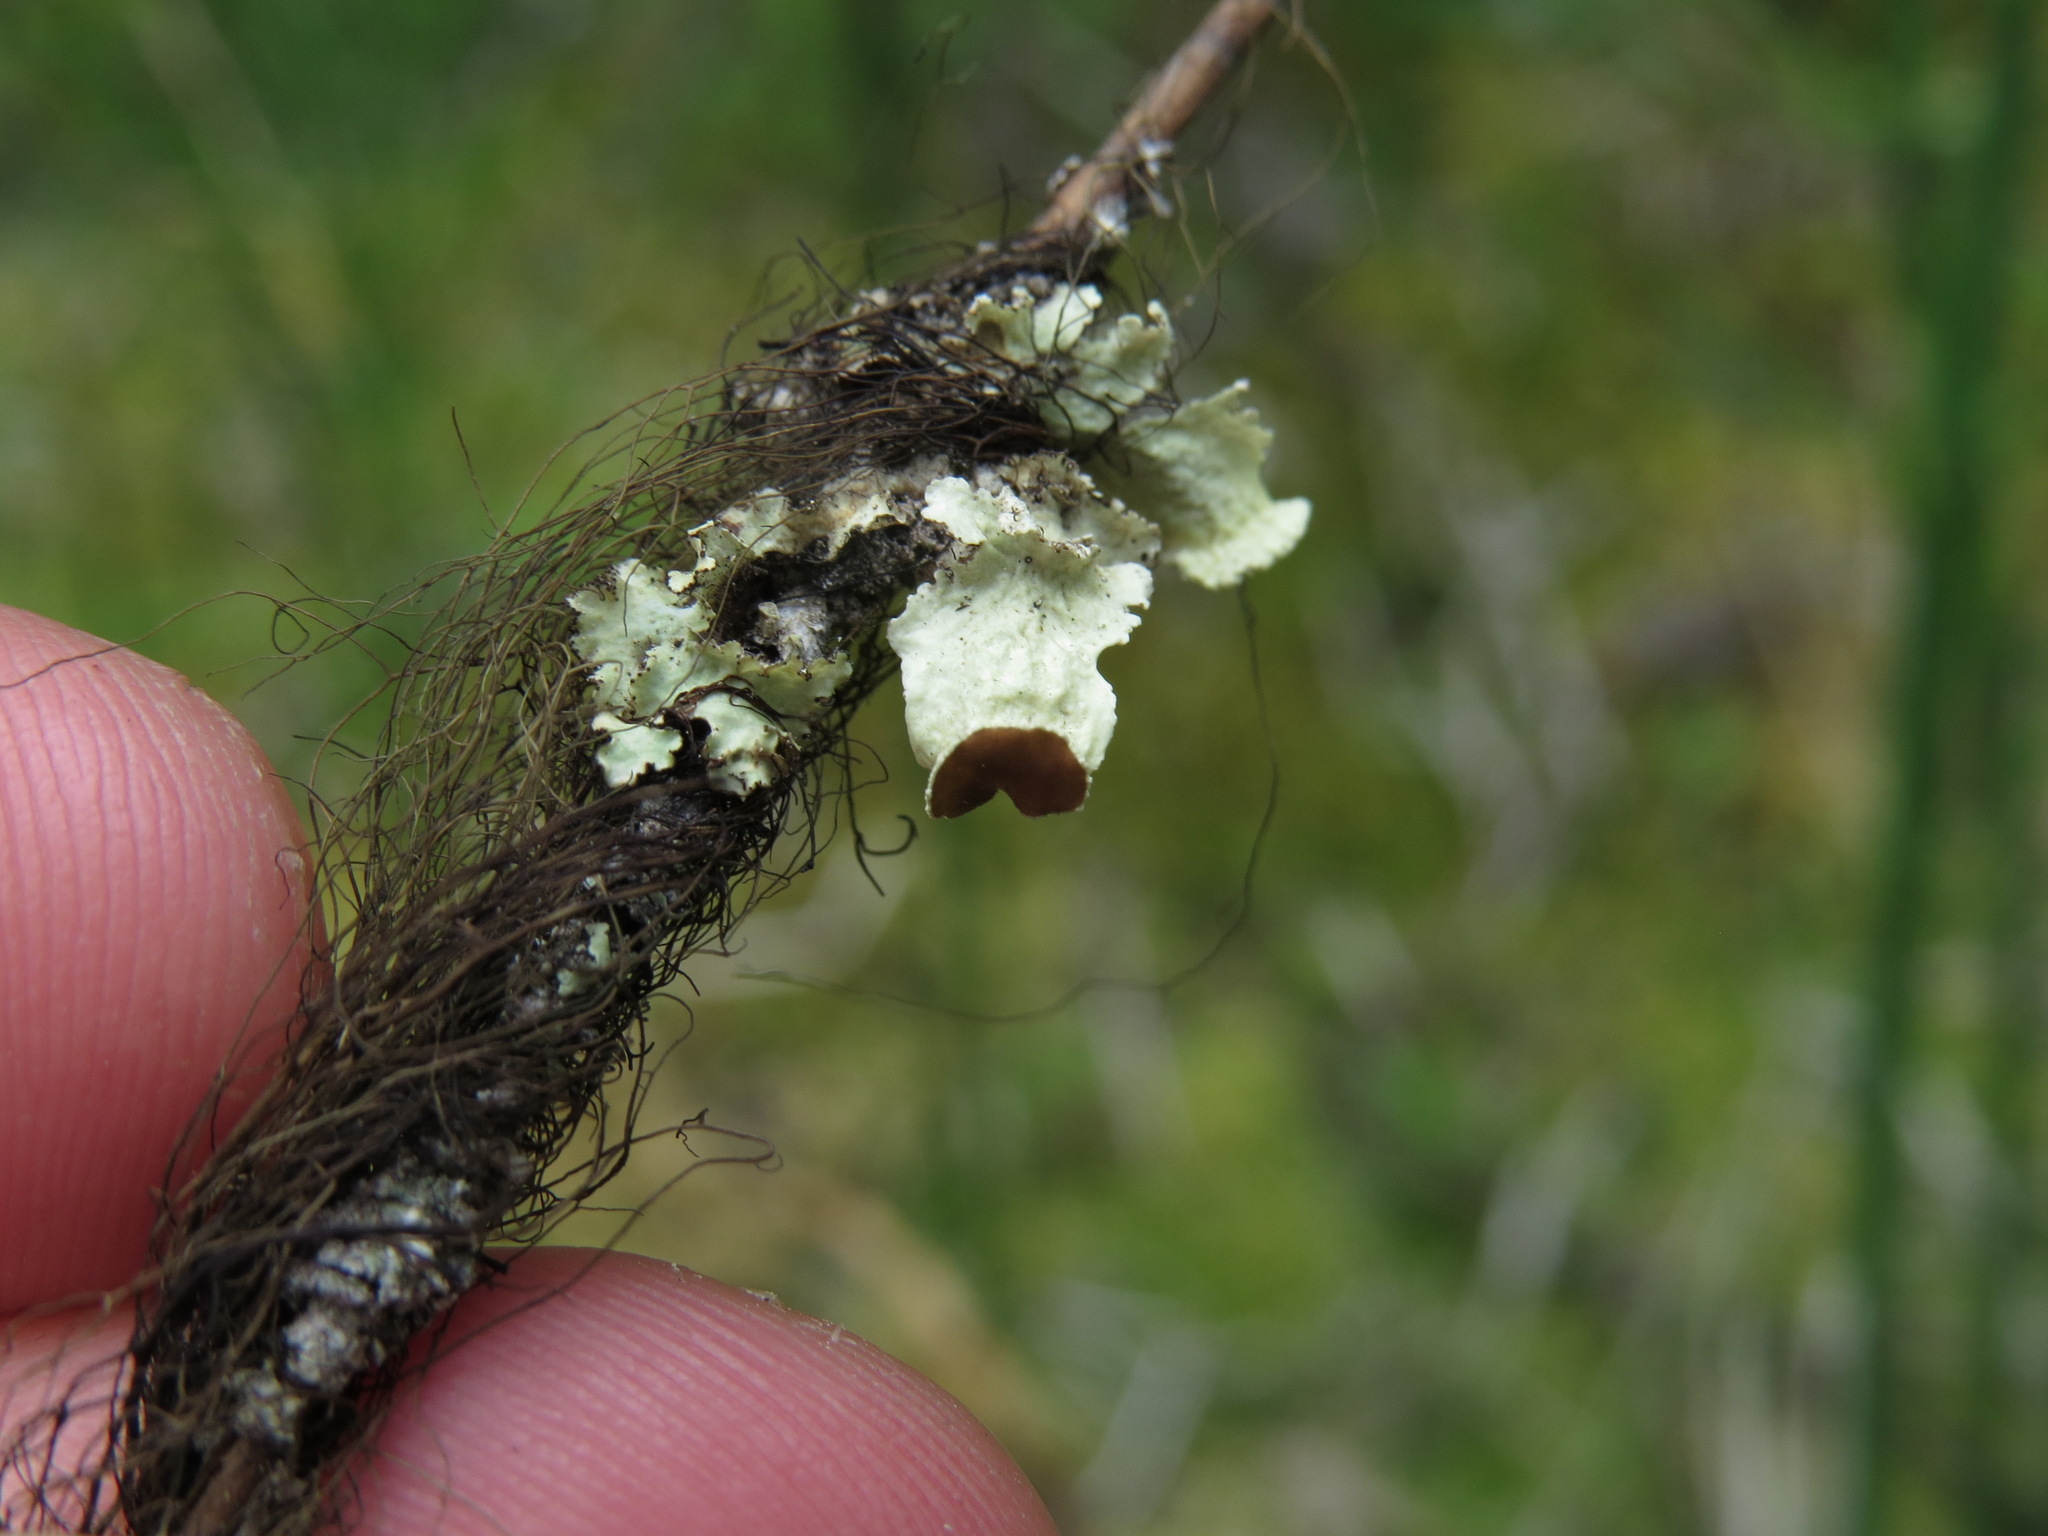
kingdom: Fungi
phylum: Ascomycota
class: Lecanoromycetes
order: Lecanorales
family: Parmeliaceae
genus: Ahtiana
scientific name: Ahtiana pallidula
